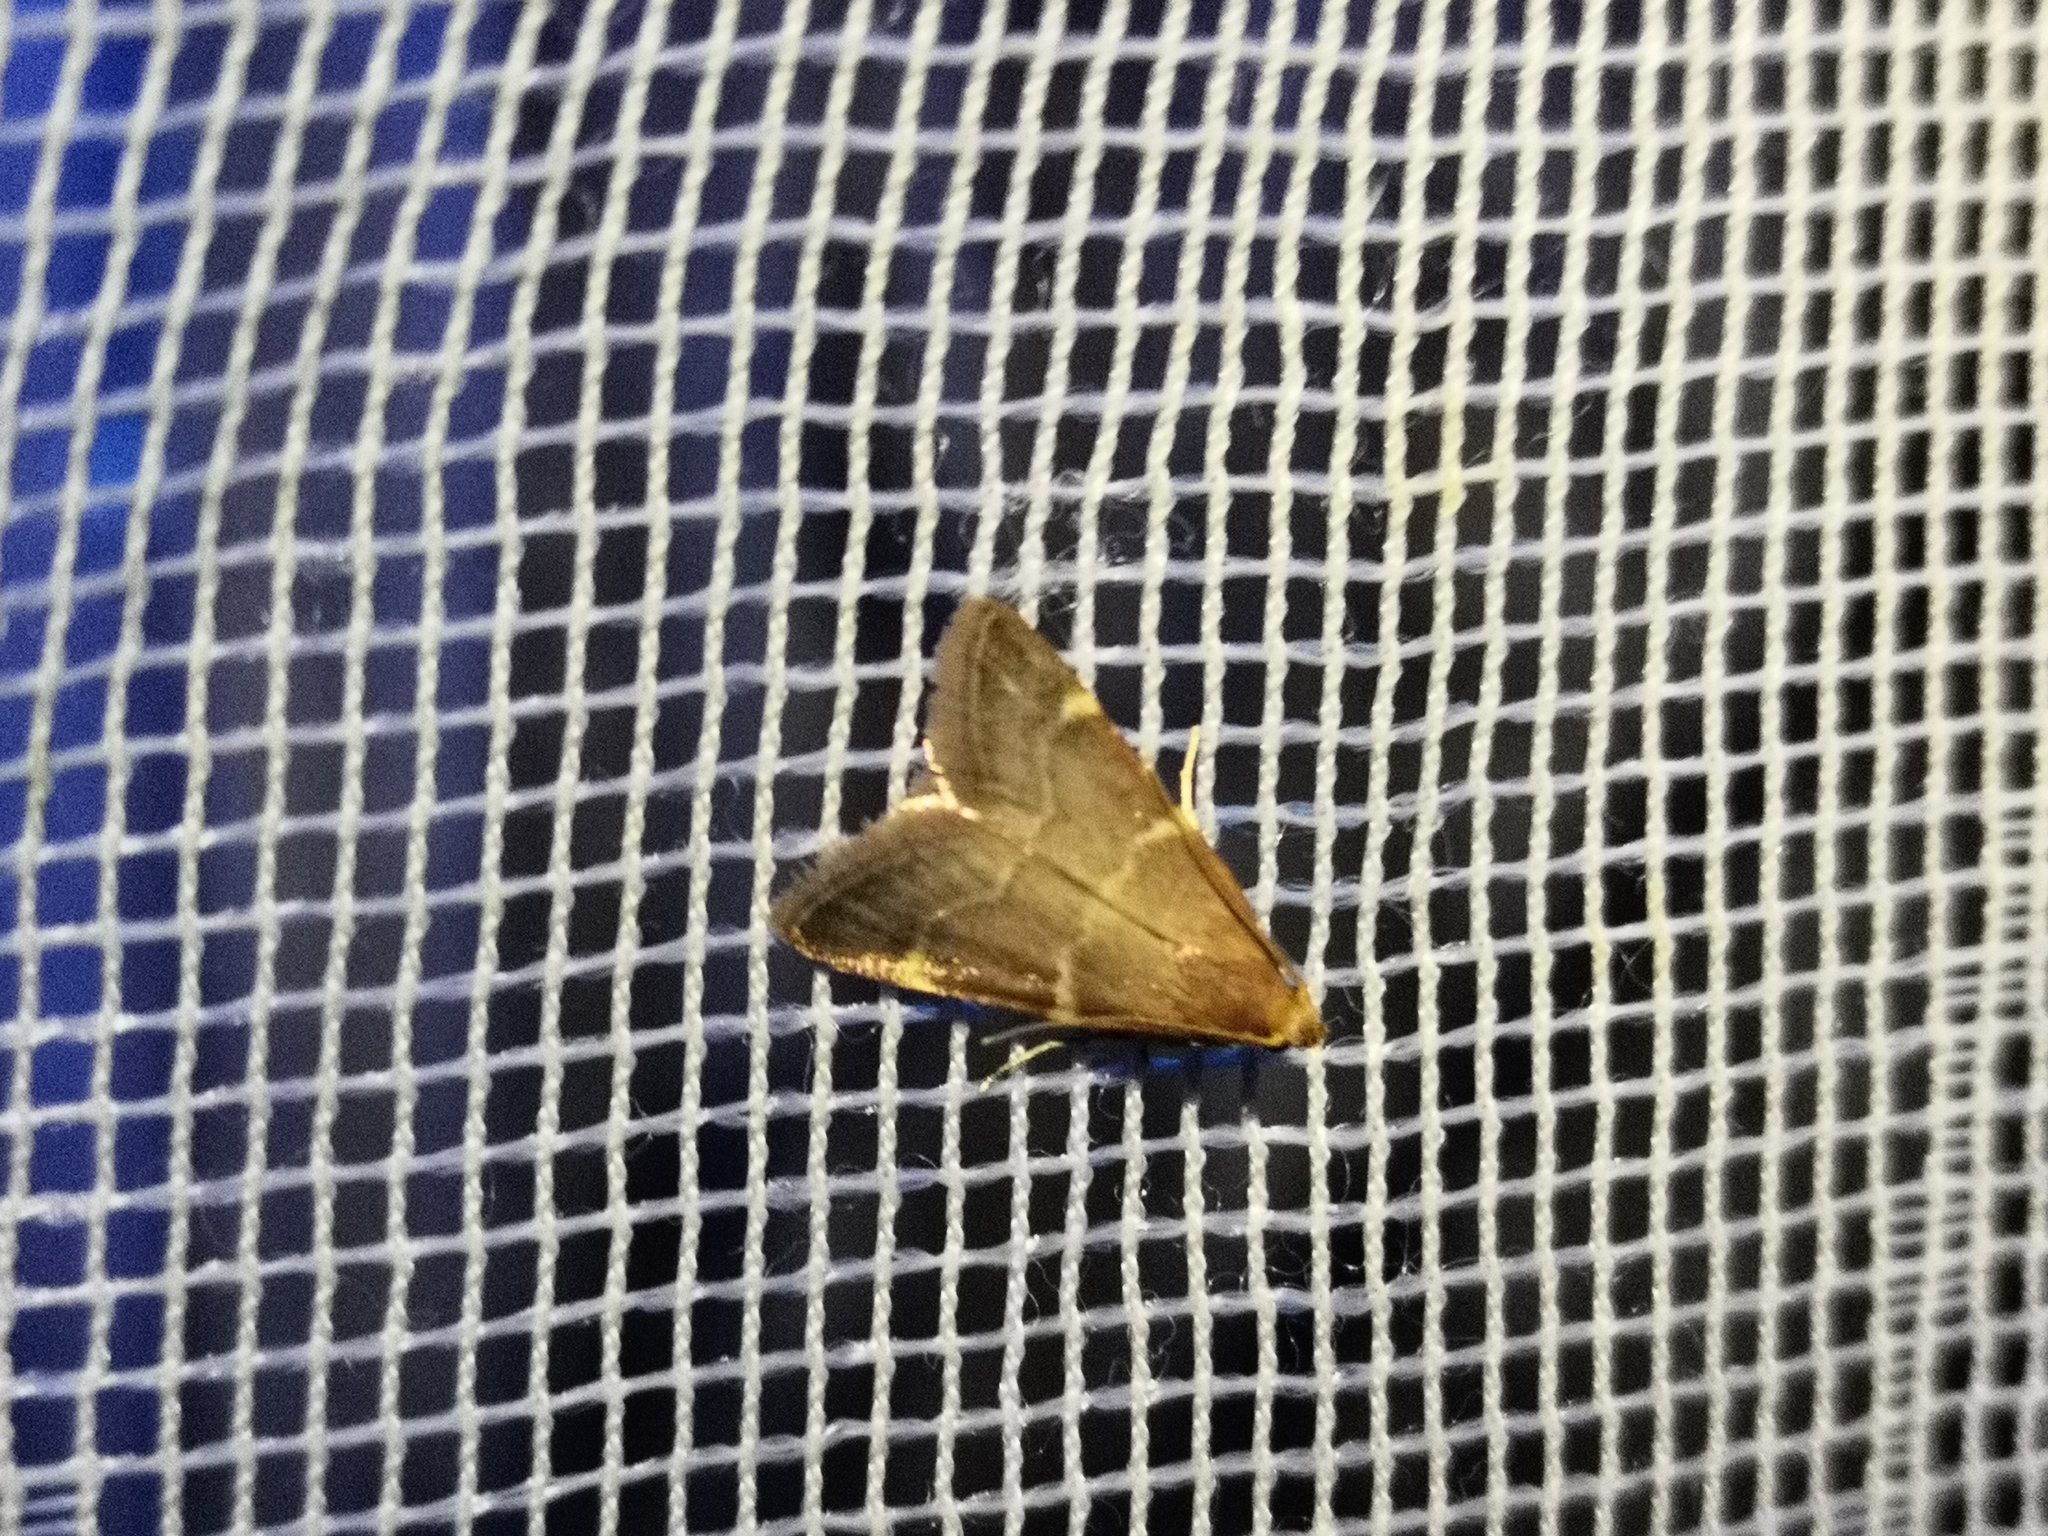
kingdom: Animalia
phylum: Arthropoda
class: Insecta
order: Lepidoptera
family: Pyralidae
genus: Pyralis
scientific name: Pyralis perversalis
